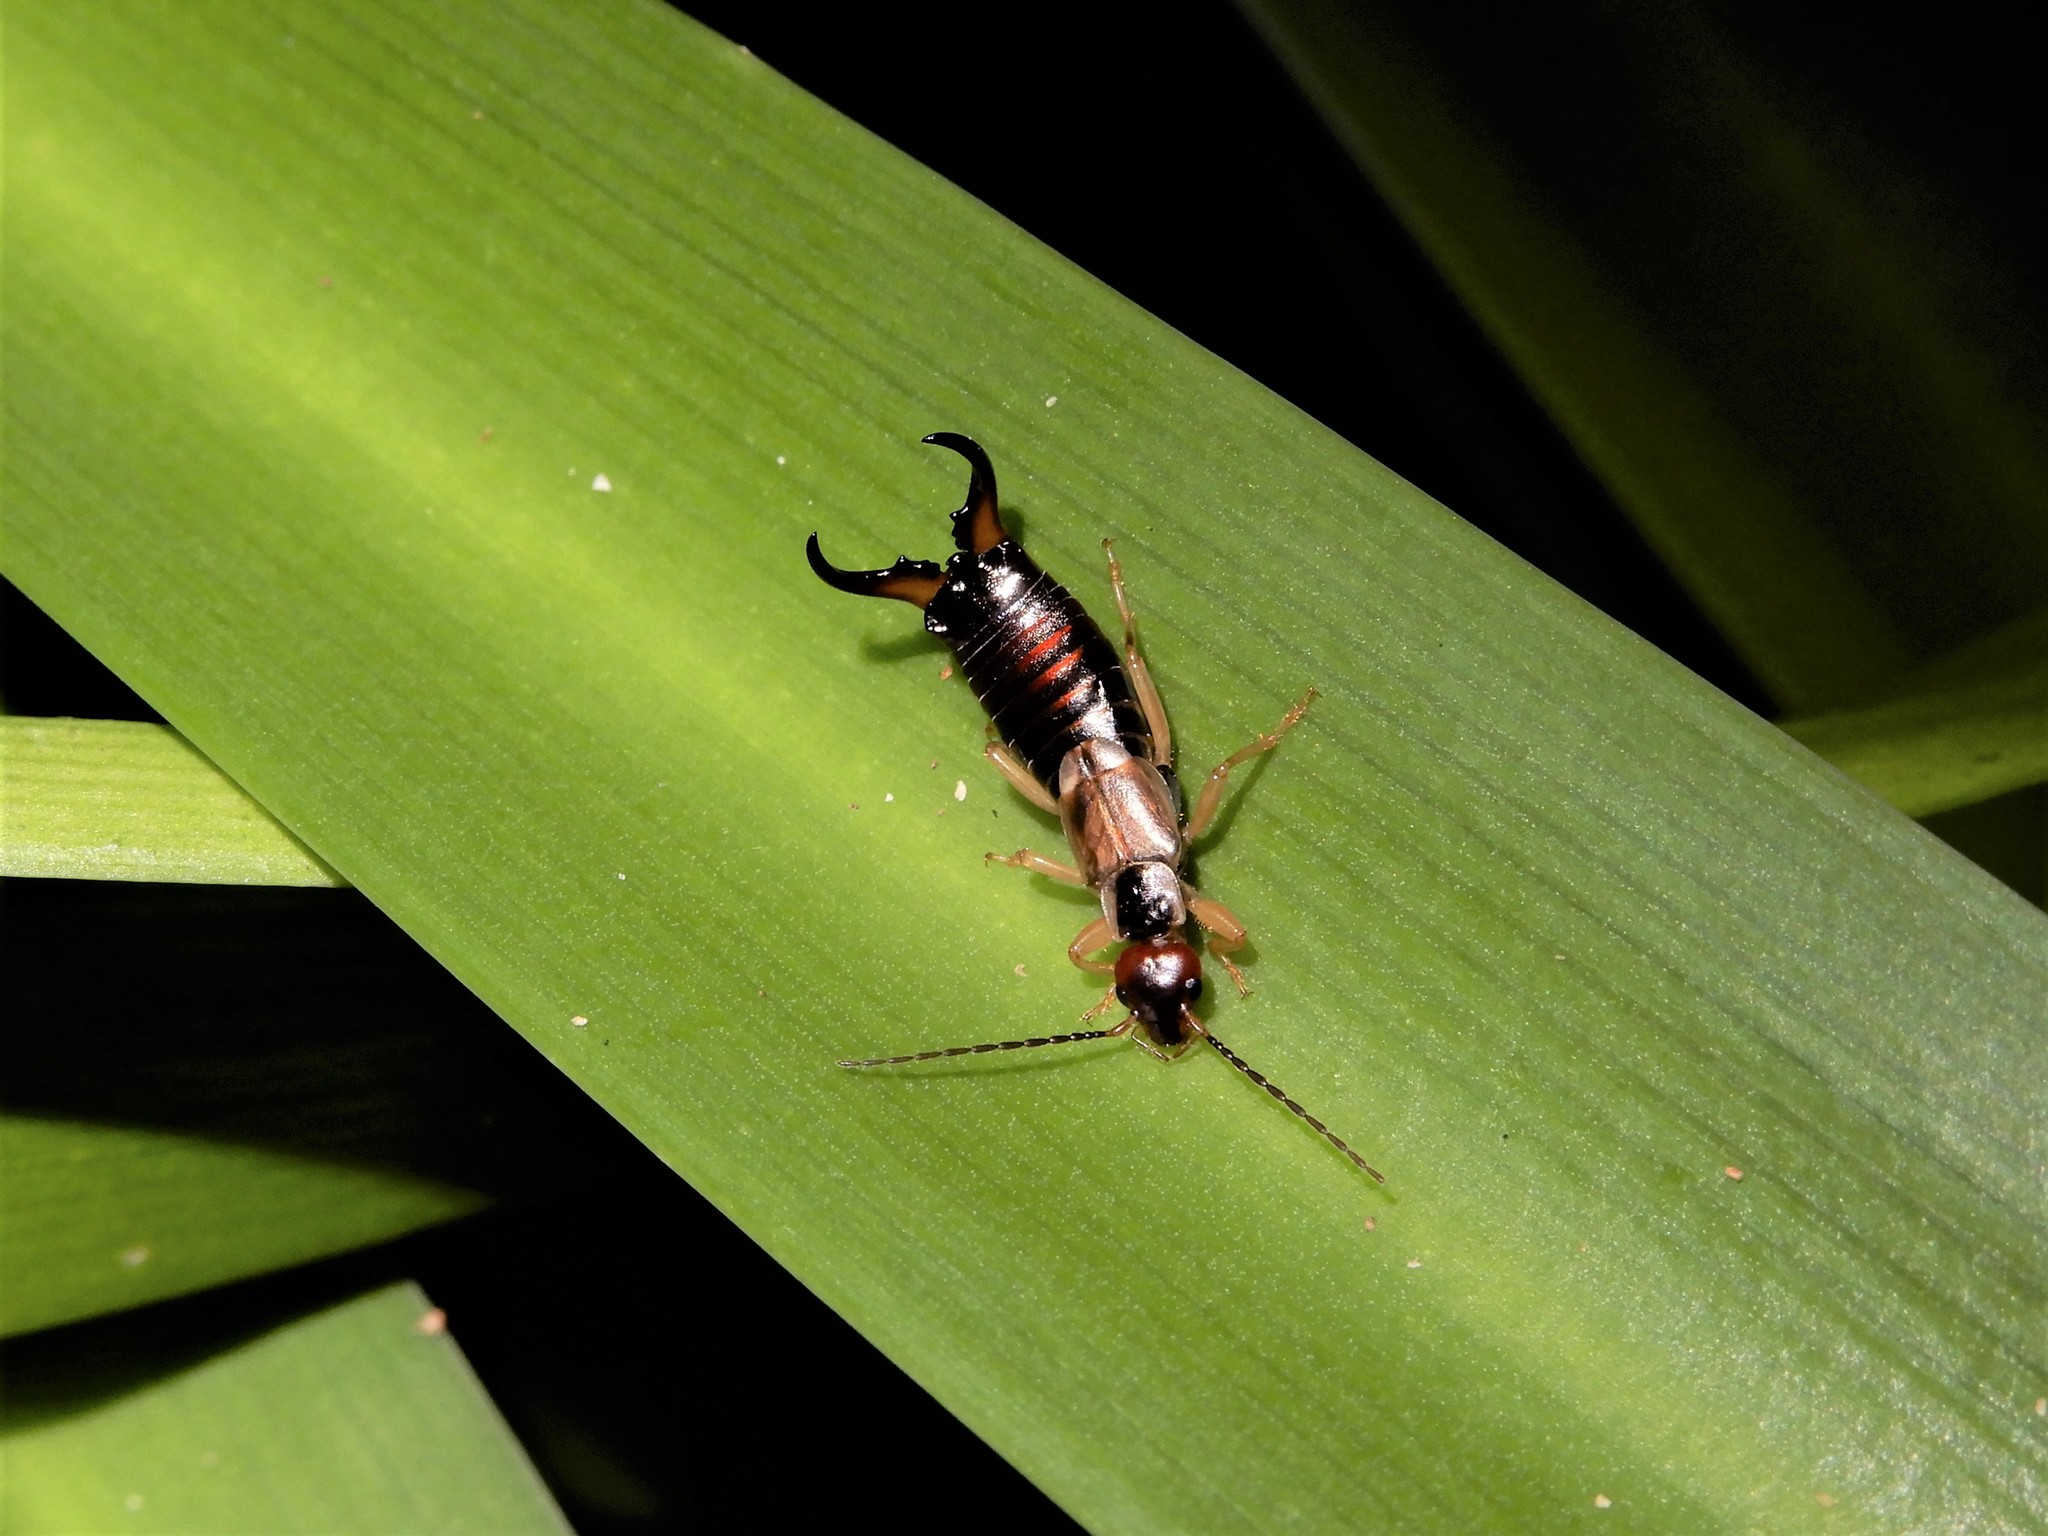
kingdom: Animalia
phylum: Arthropoda
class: Insecta
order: Dermaptera
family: Forficulidae
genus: Forficula
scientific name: Forficula
